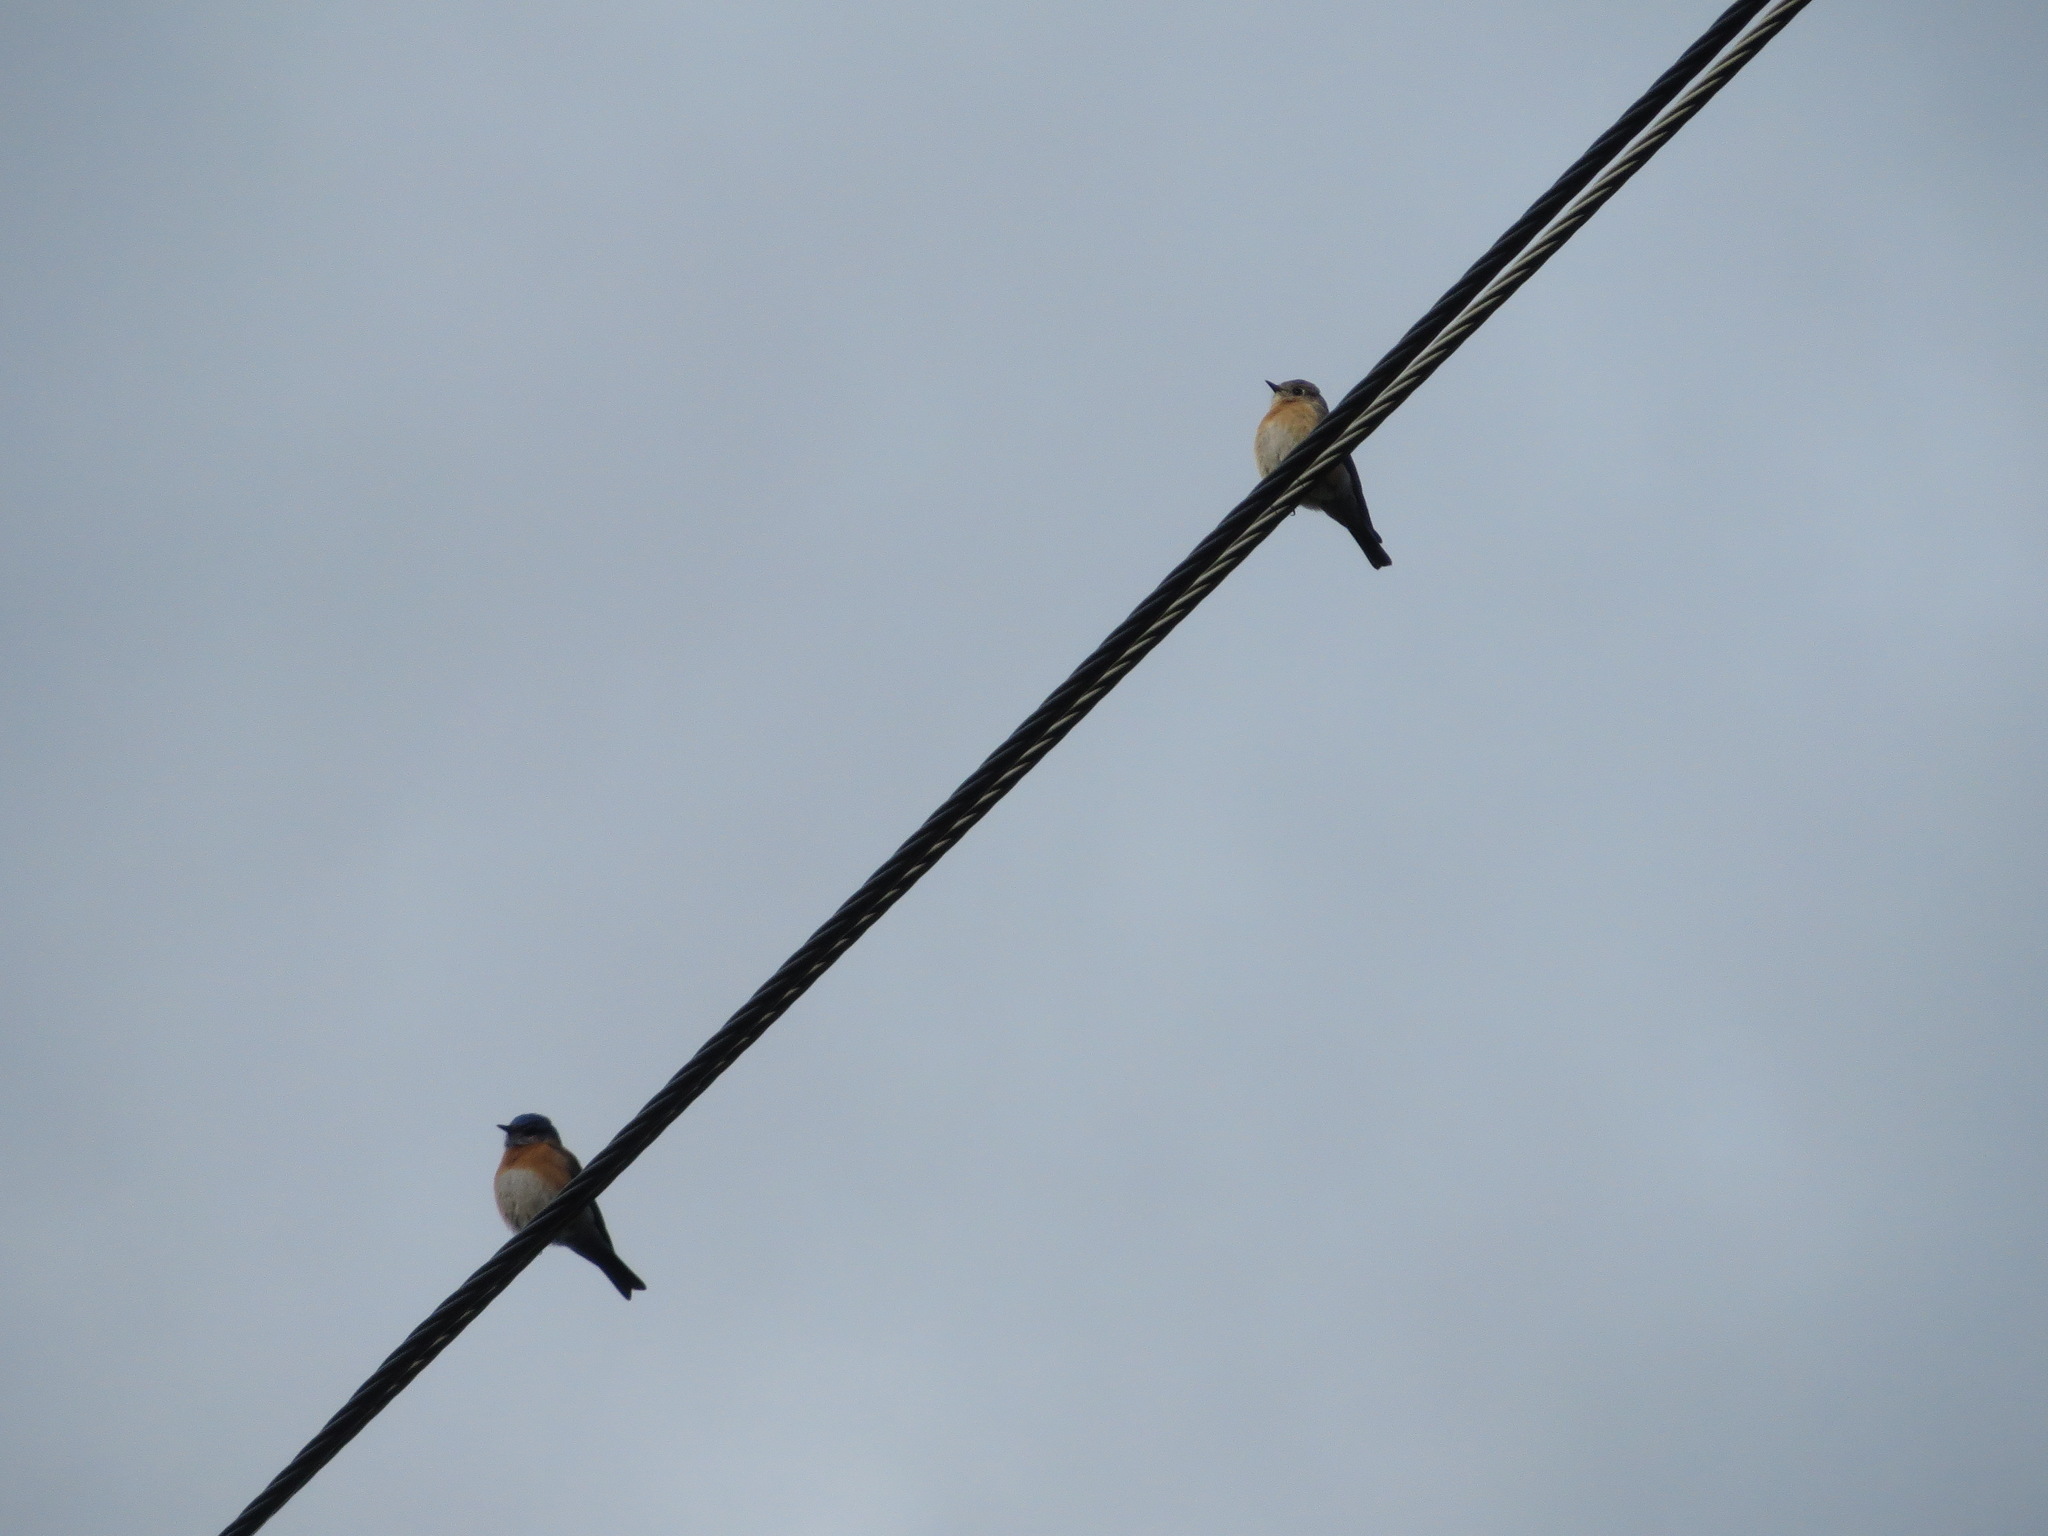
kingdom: Animalia
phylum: Chordata
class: Aves
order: Passeriformes
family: Turdidae
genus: Sialia
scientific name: Sialia mexicana
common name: Western bluebird
